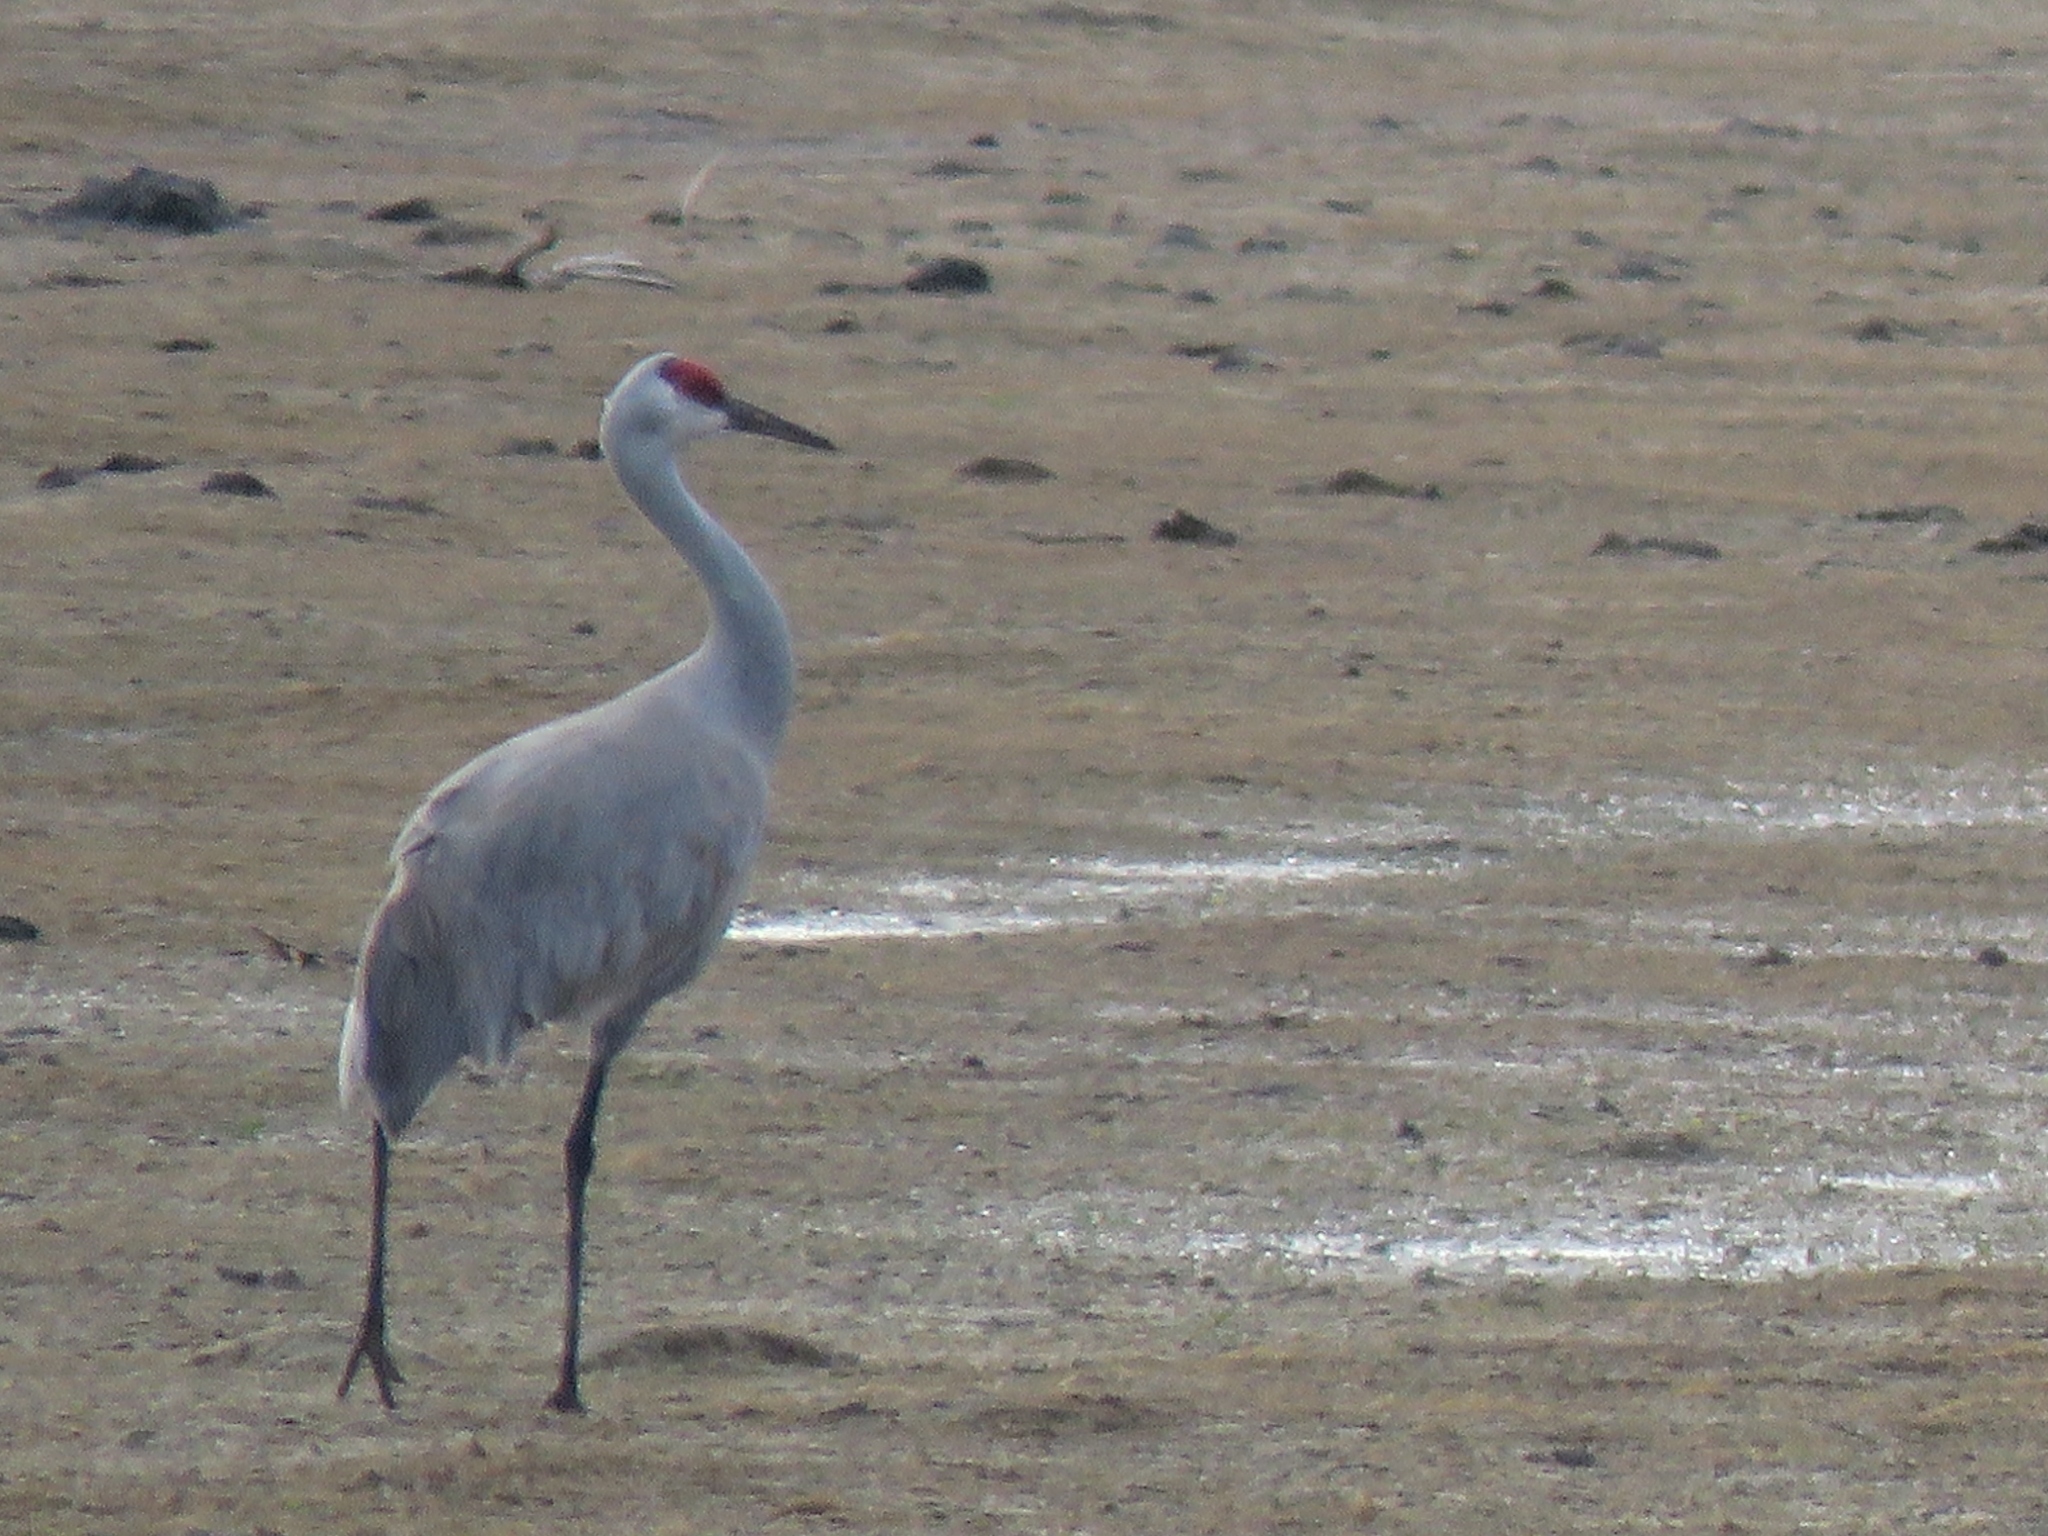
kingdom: Animalia
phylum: Chordata
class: Aves
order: Gruiformes
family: Gruidae
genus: Grus
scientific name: Grus canadensis
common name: Sandhill crane
